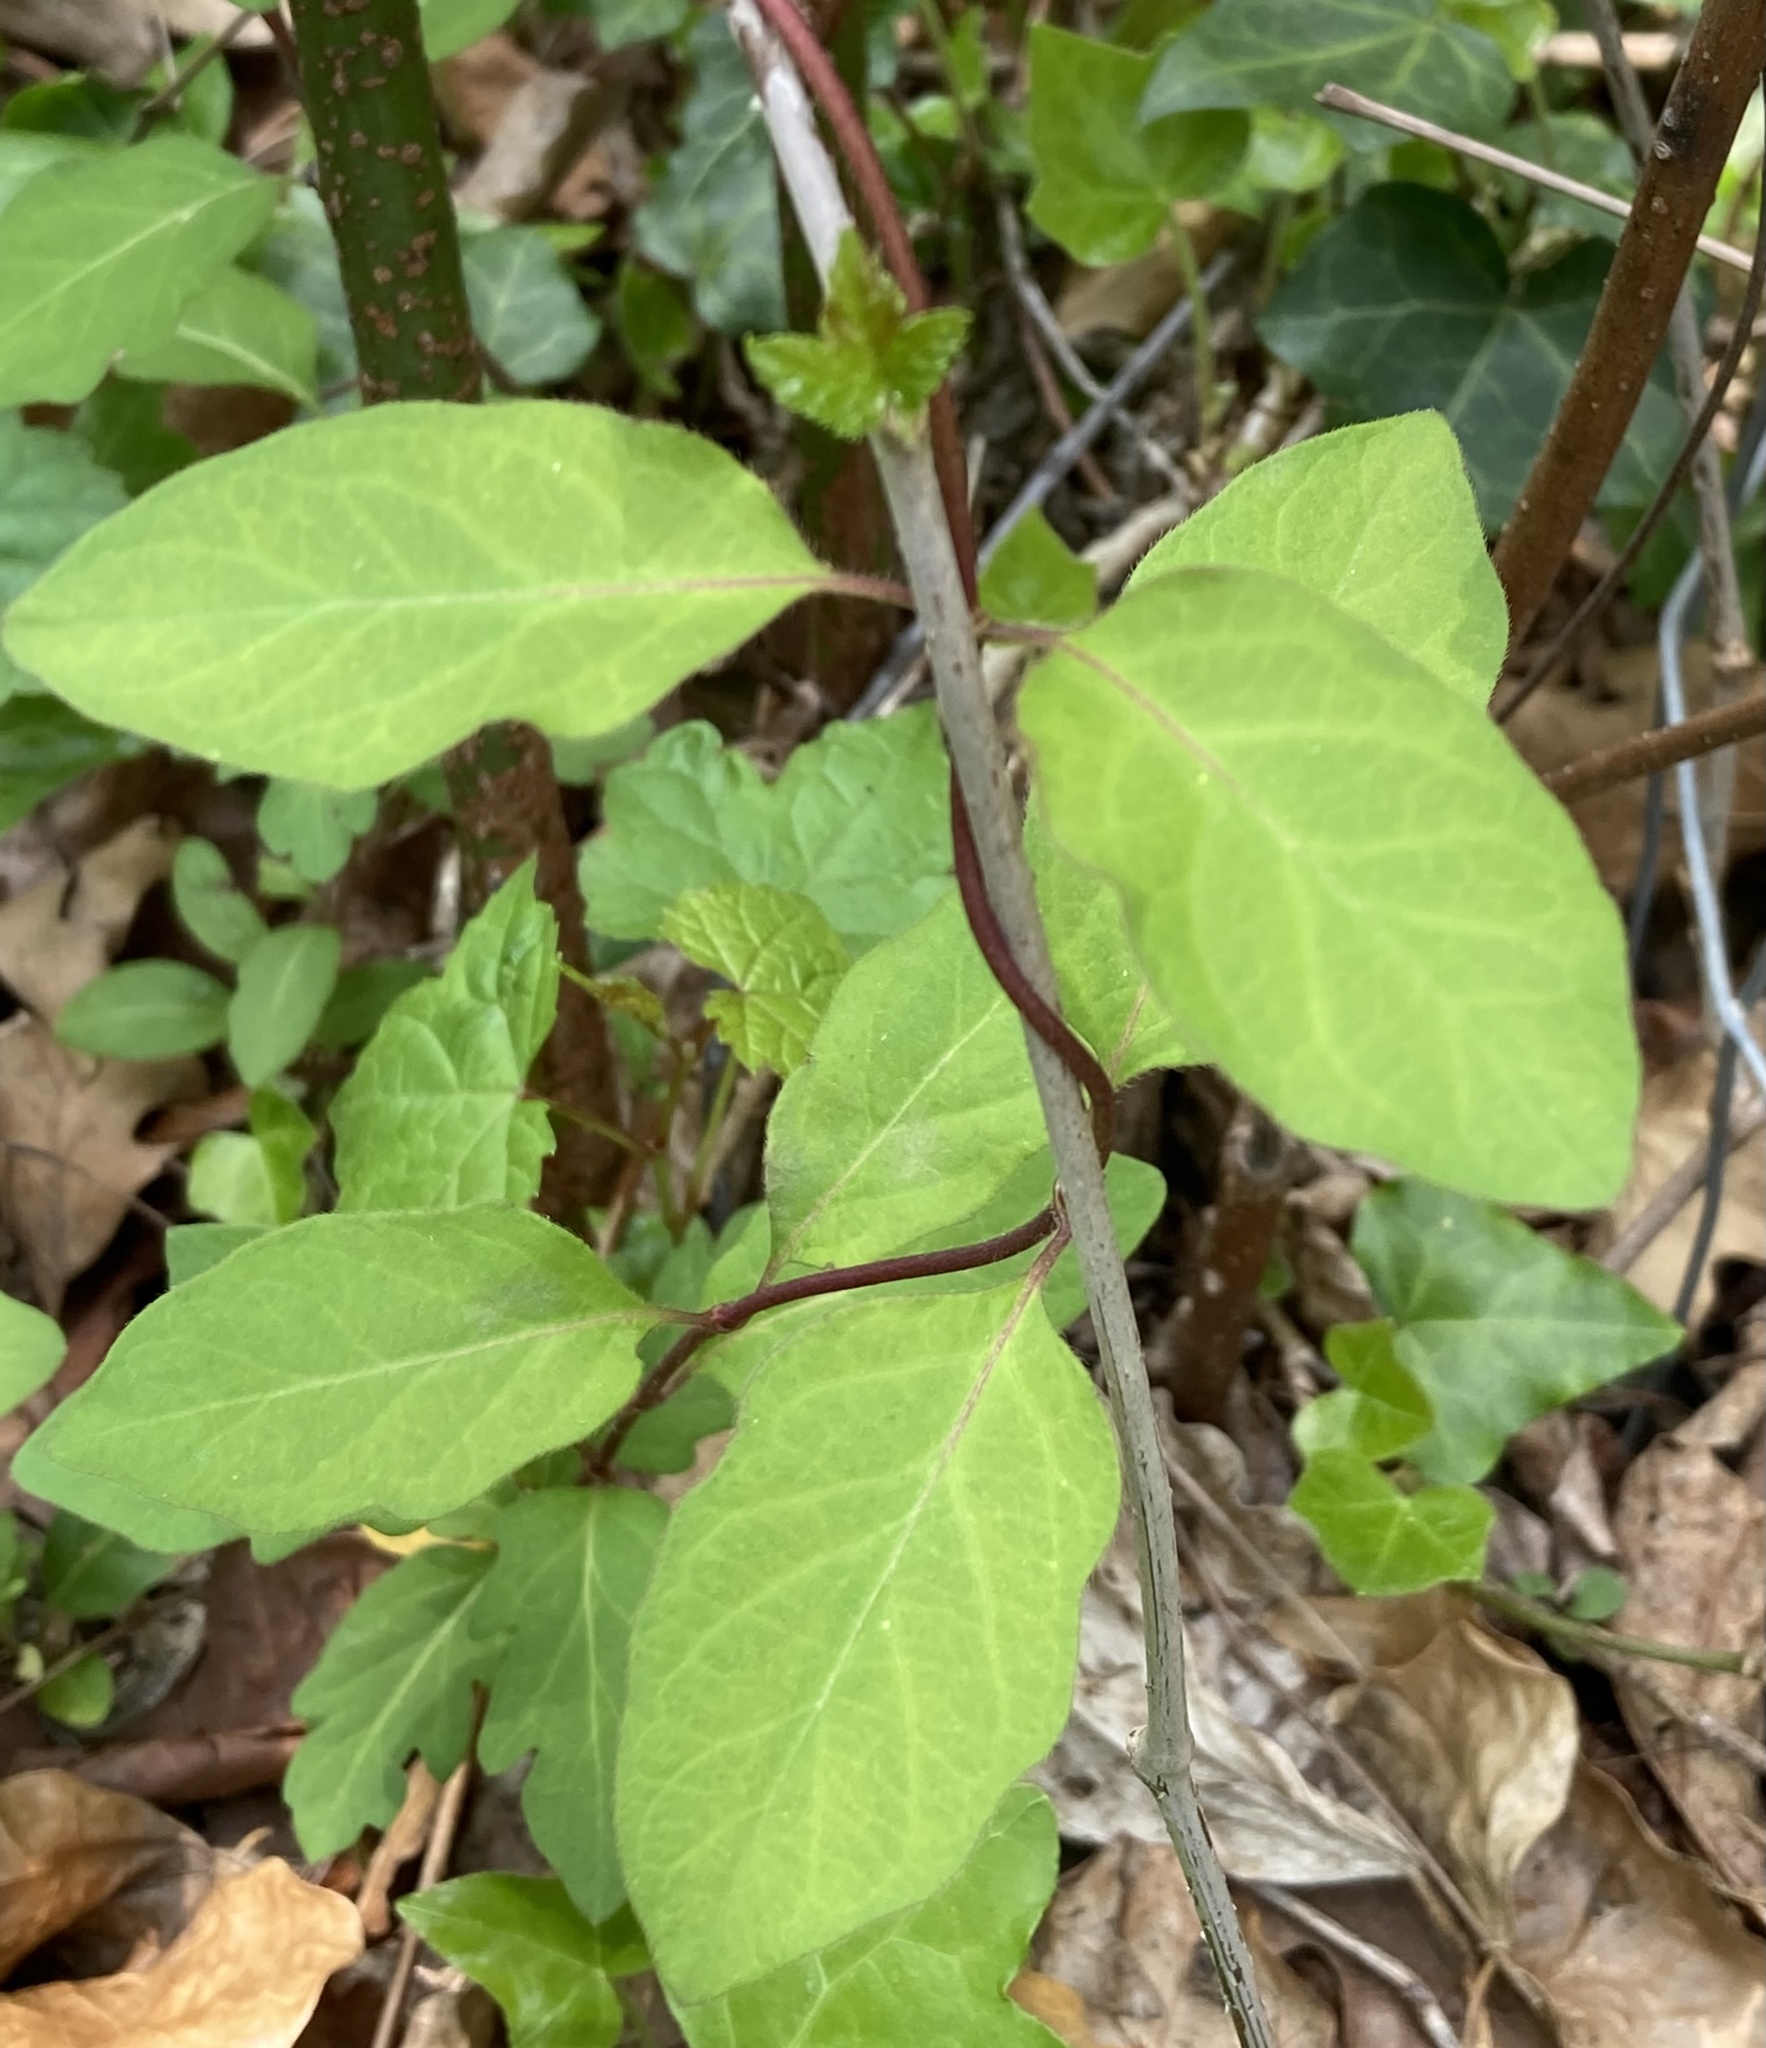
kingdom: Plantae
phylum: Tracheophyta
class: Magnoliopsida
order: Dipsacales
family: Caprifoliaceae
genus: Lonicera
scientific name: Lonicera japonica
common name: Japanese honeysuckle
